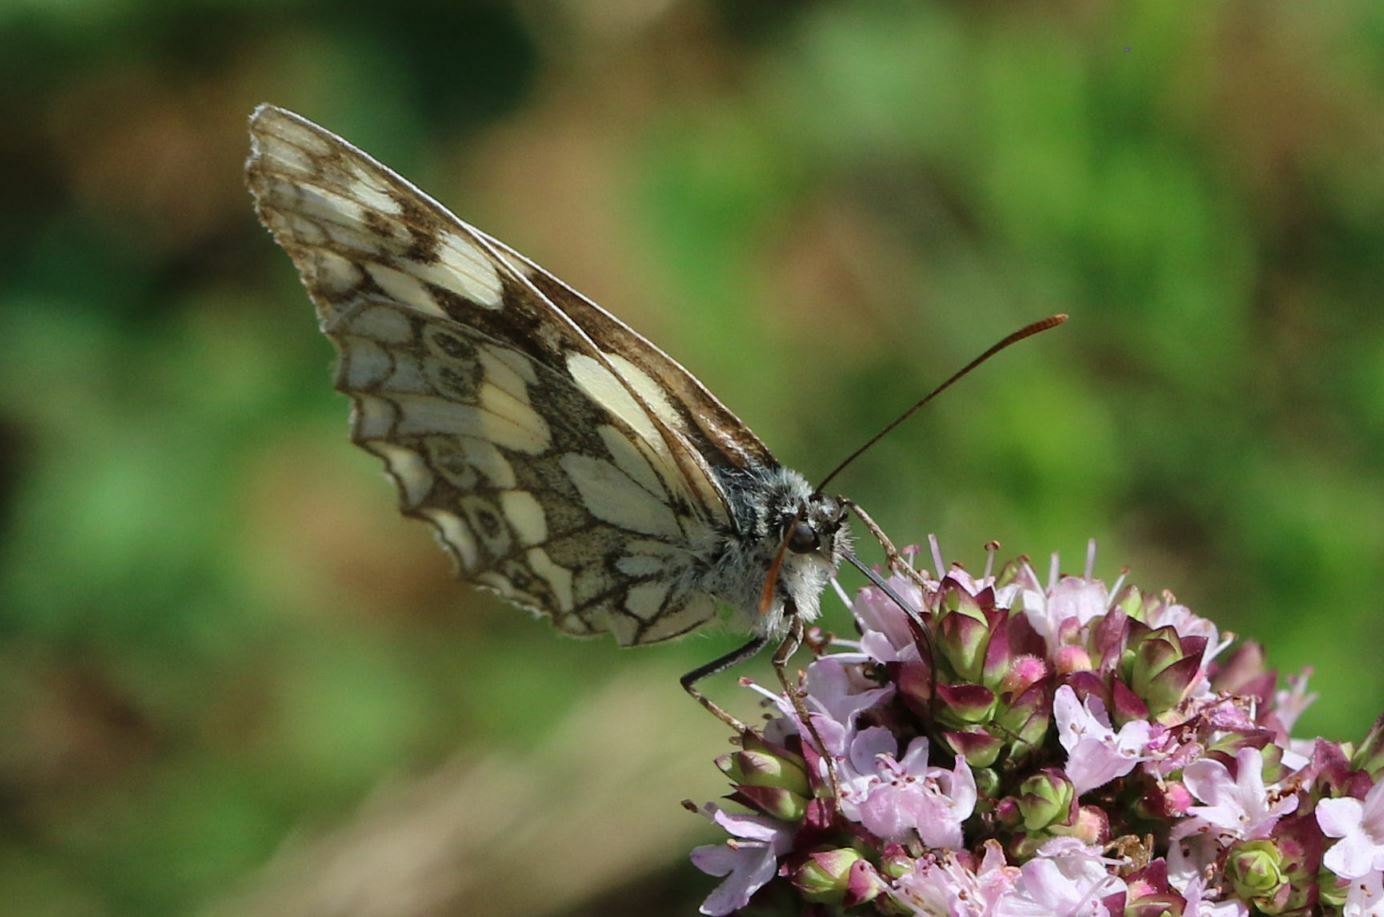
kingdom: Animalia
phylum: Arthropoda
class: Insecta
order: Lepidoptera
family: Nymphalidae
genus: Melanargia
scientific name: Melanargia galathea
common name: Marbled white
